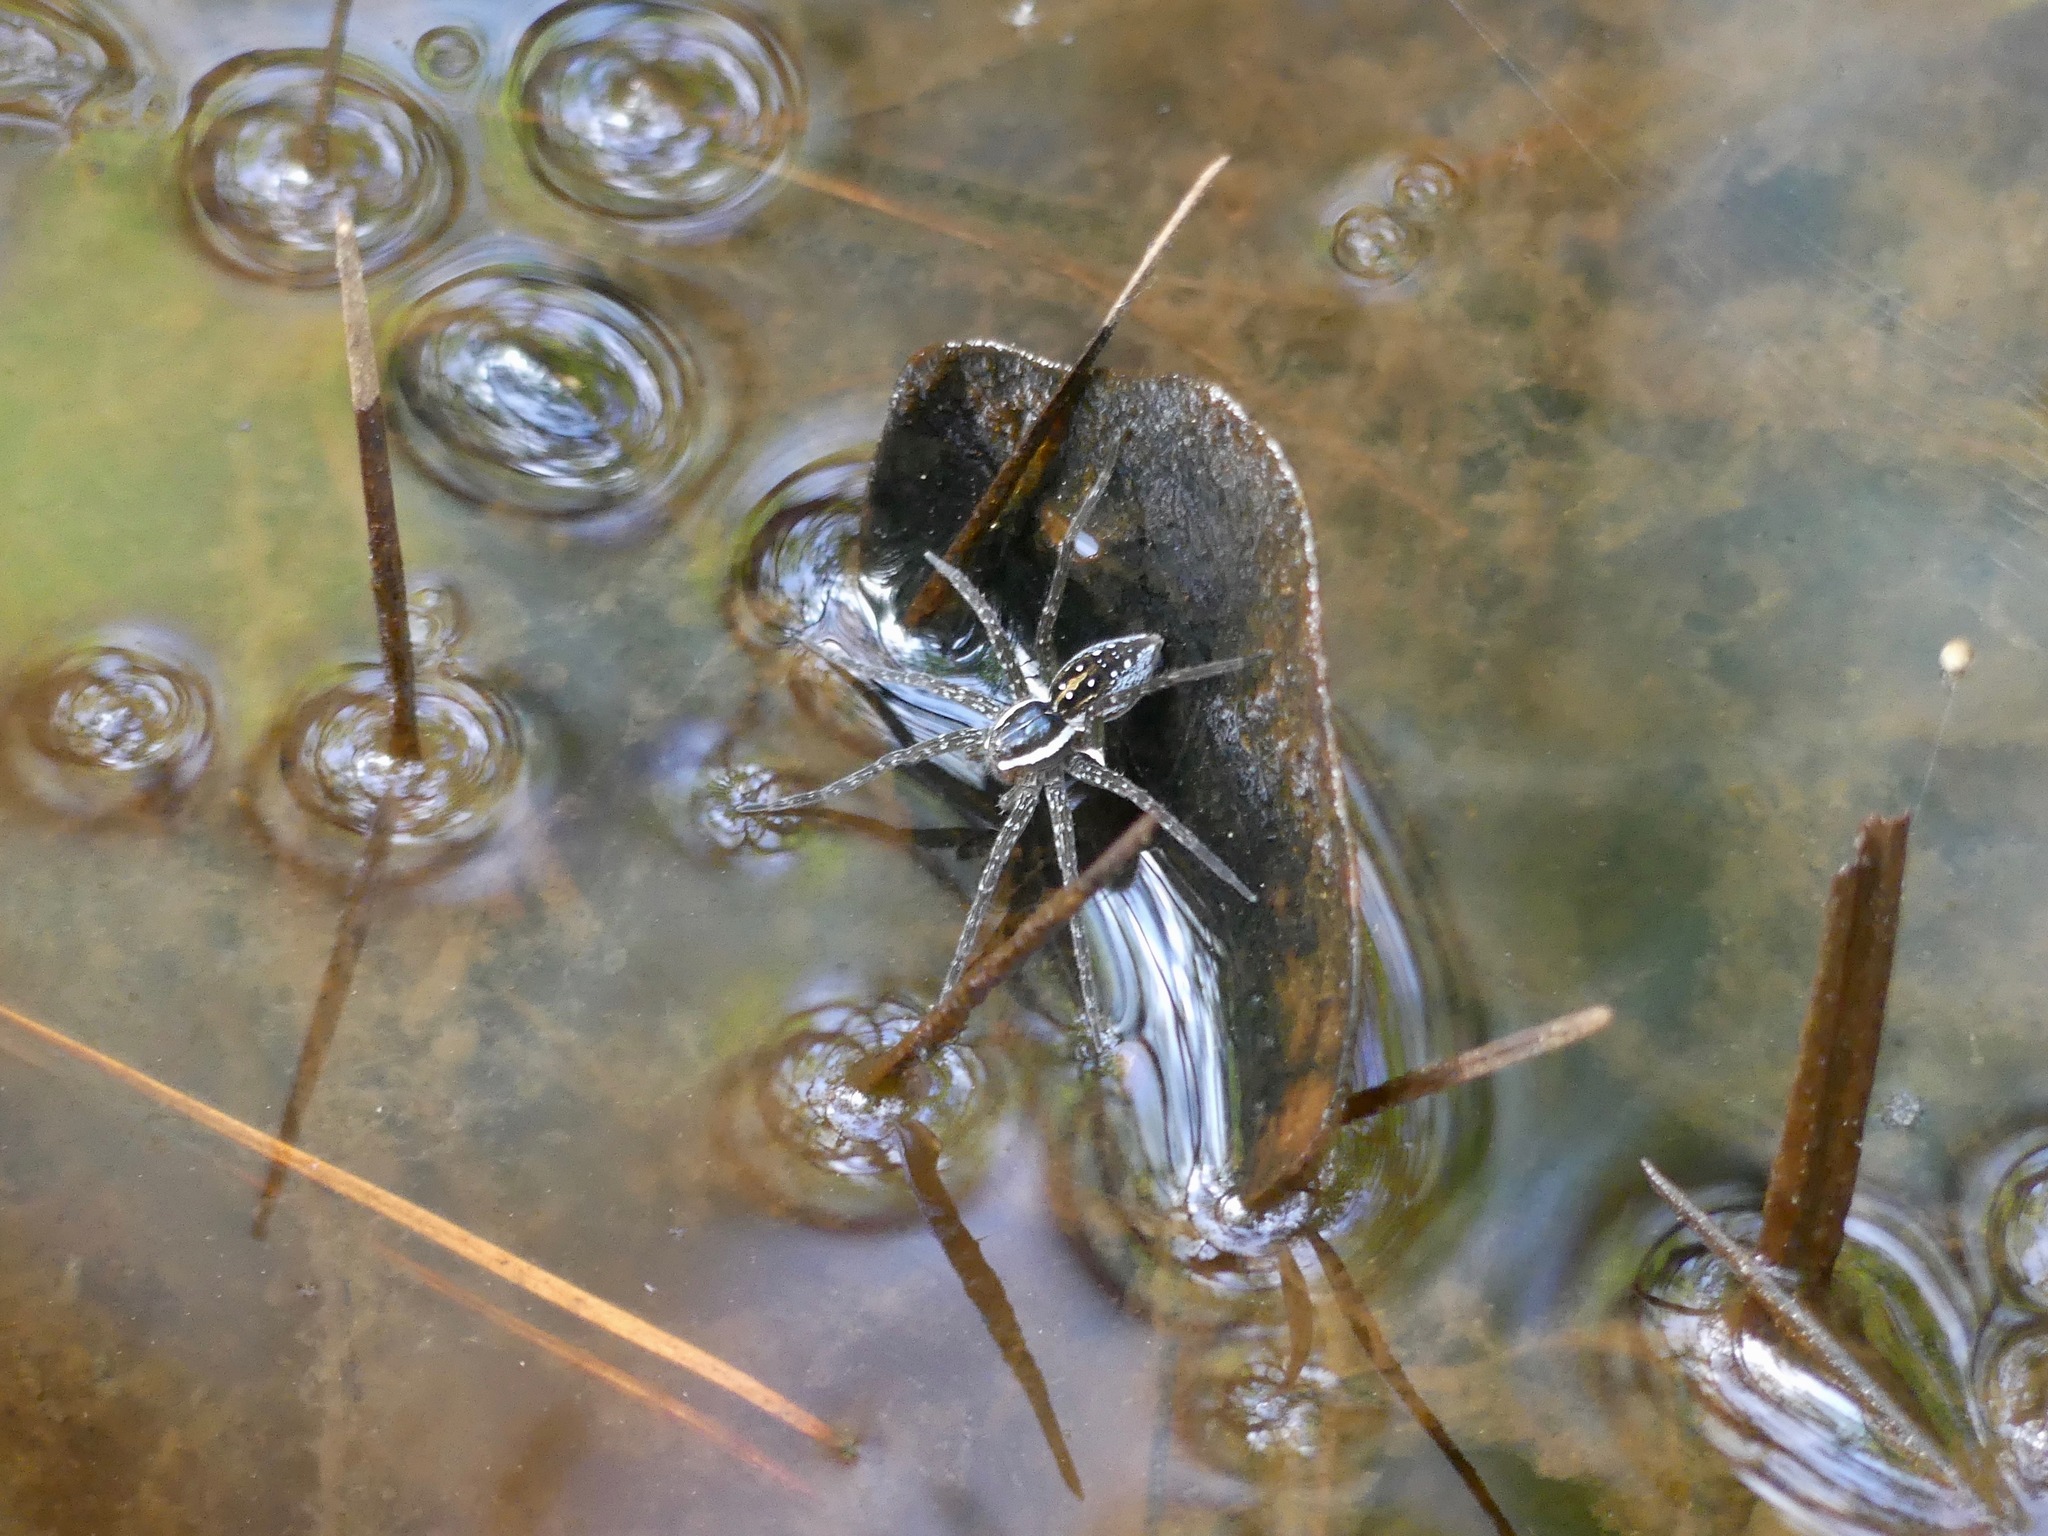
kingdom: Animalia
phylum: Arthropoda
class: Arachnida
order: Araneae
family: Pisauridae
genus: Dolomedes
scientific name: Dolomedes triton
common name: Six-spotted fishing spider
